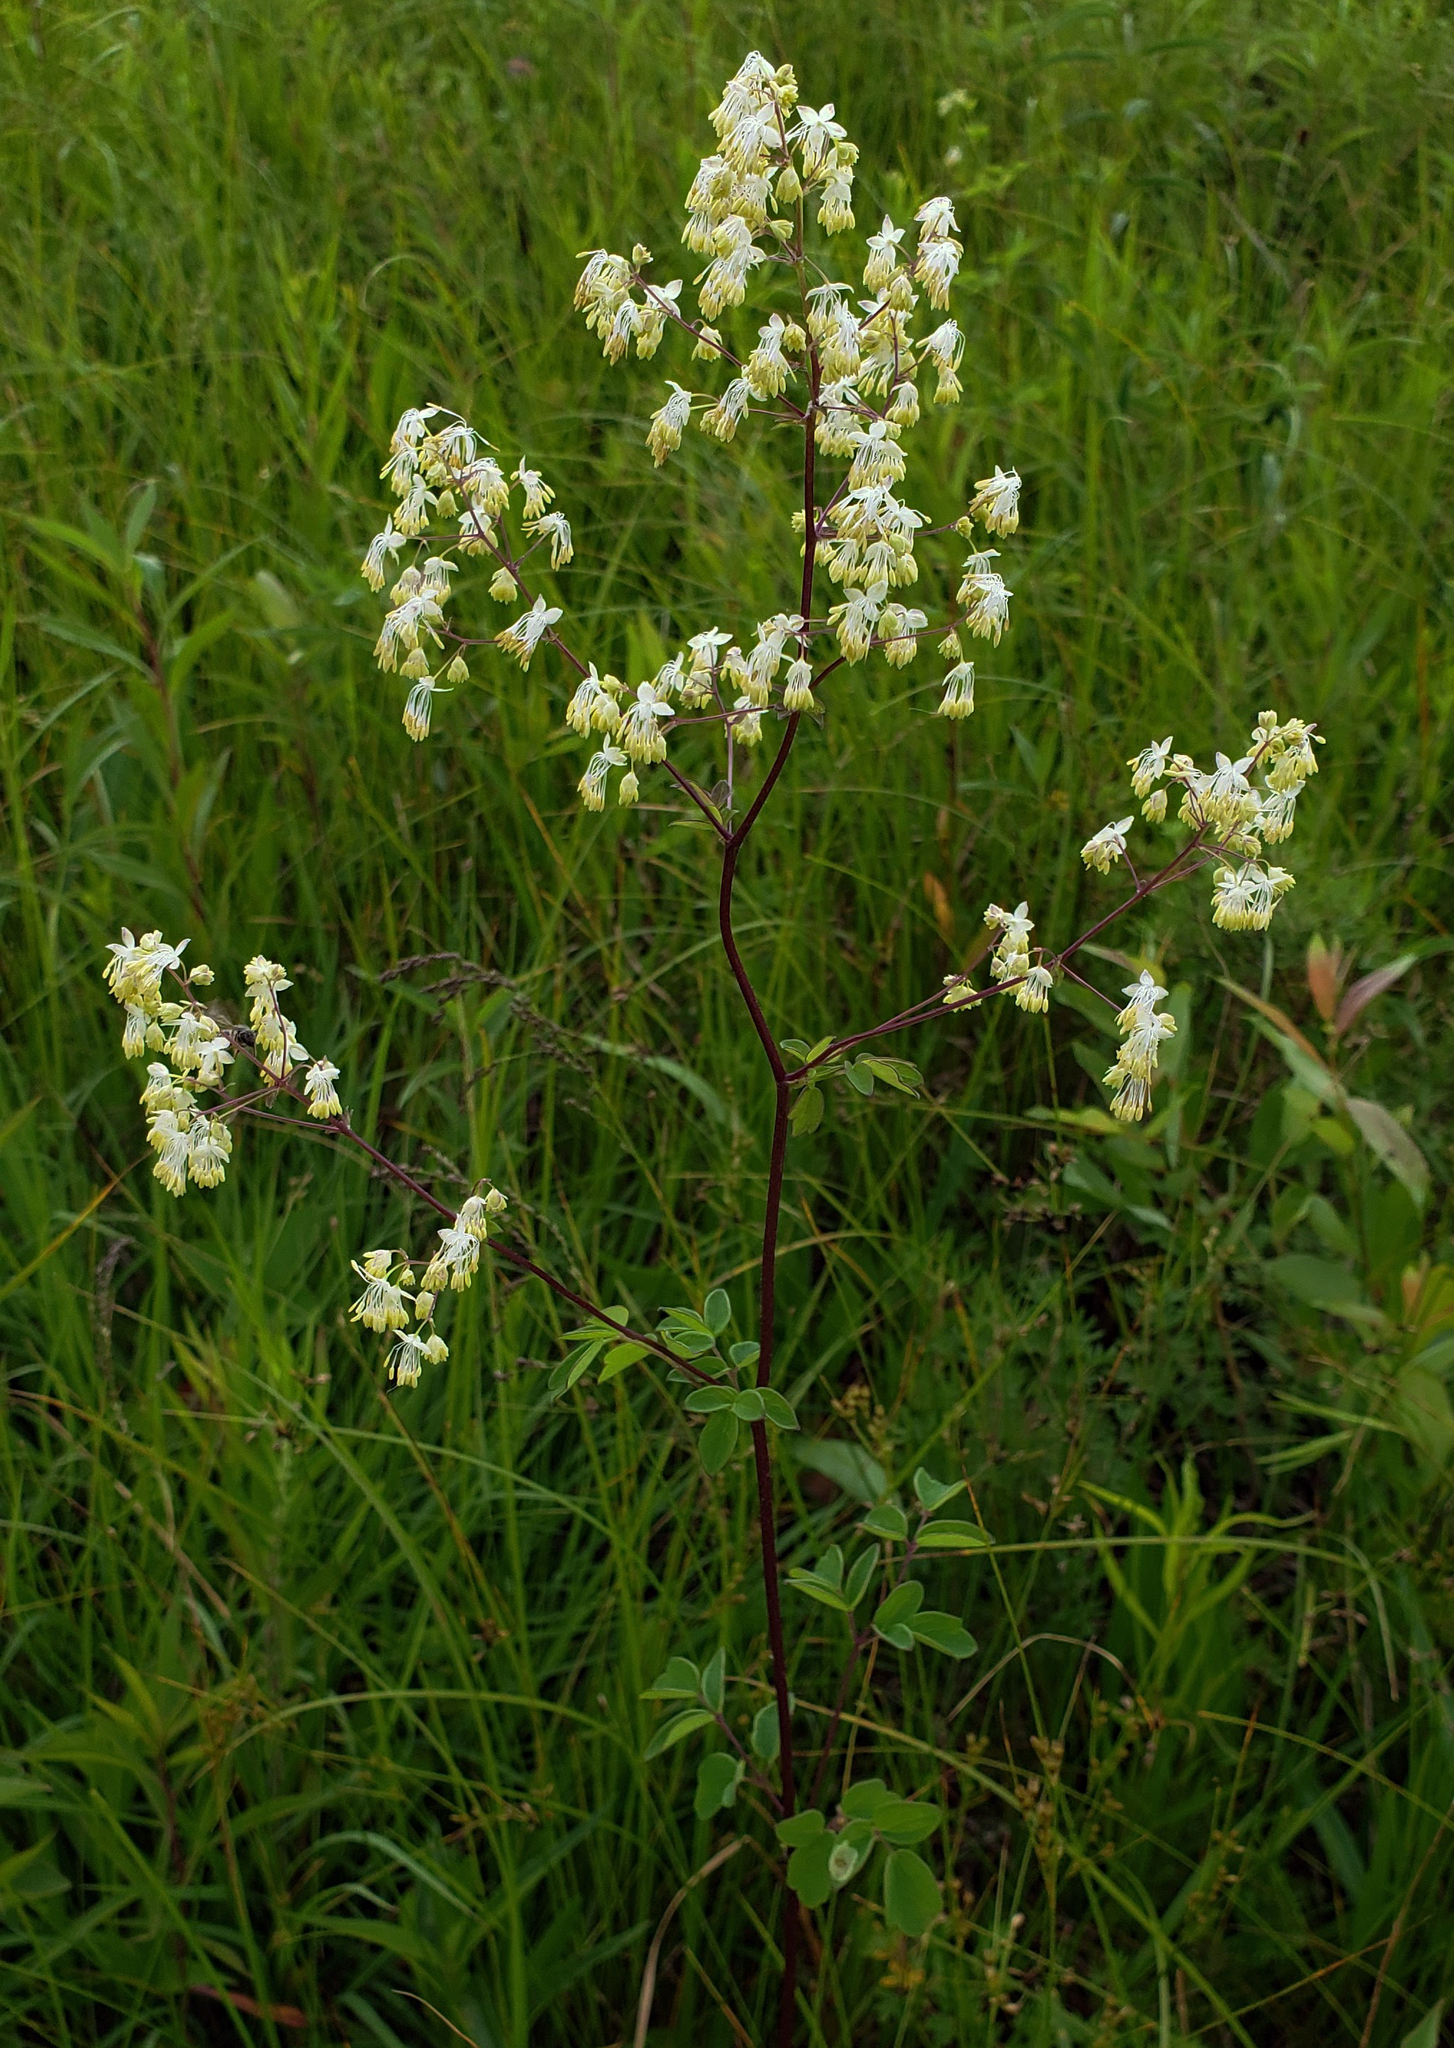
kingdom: Plantae
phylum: Tracheophyta
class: Magnoliopsida
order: Ranunculales
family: Ranunculaceae
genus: Thalictrum
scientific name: Thalictrum dasycarpum
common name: Purple meadow-rue
